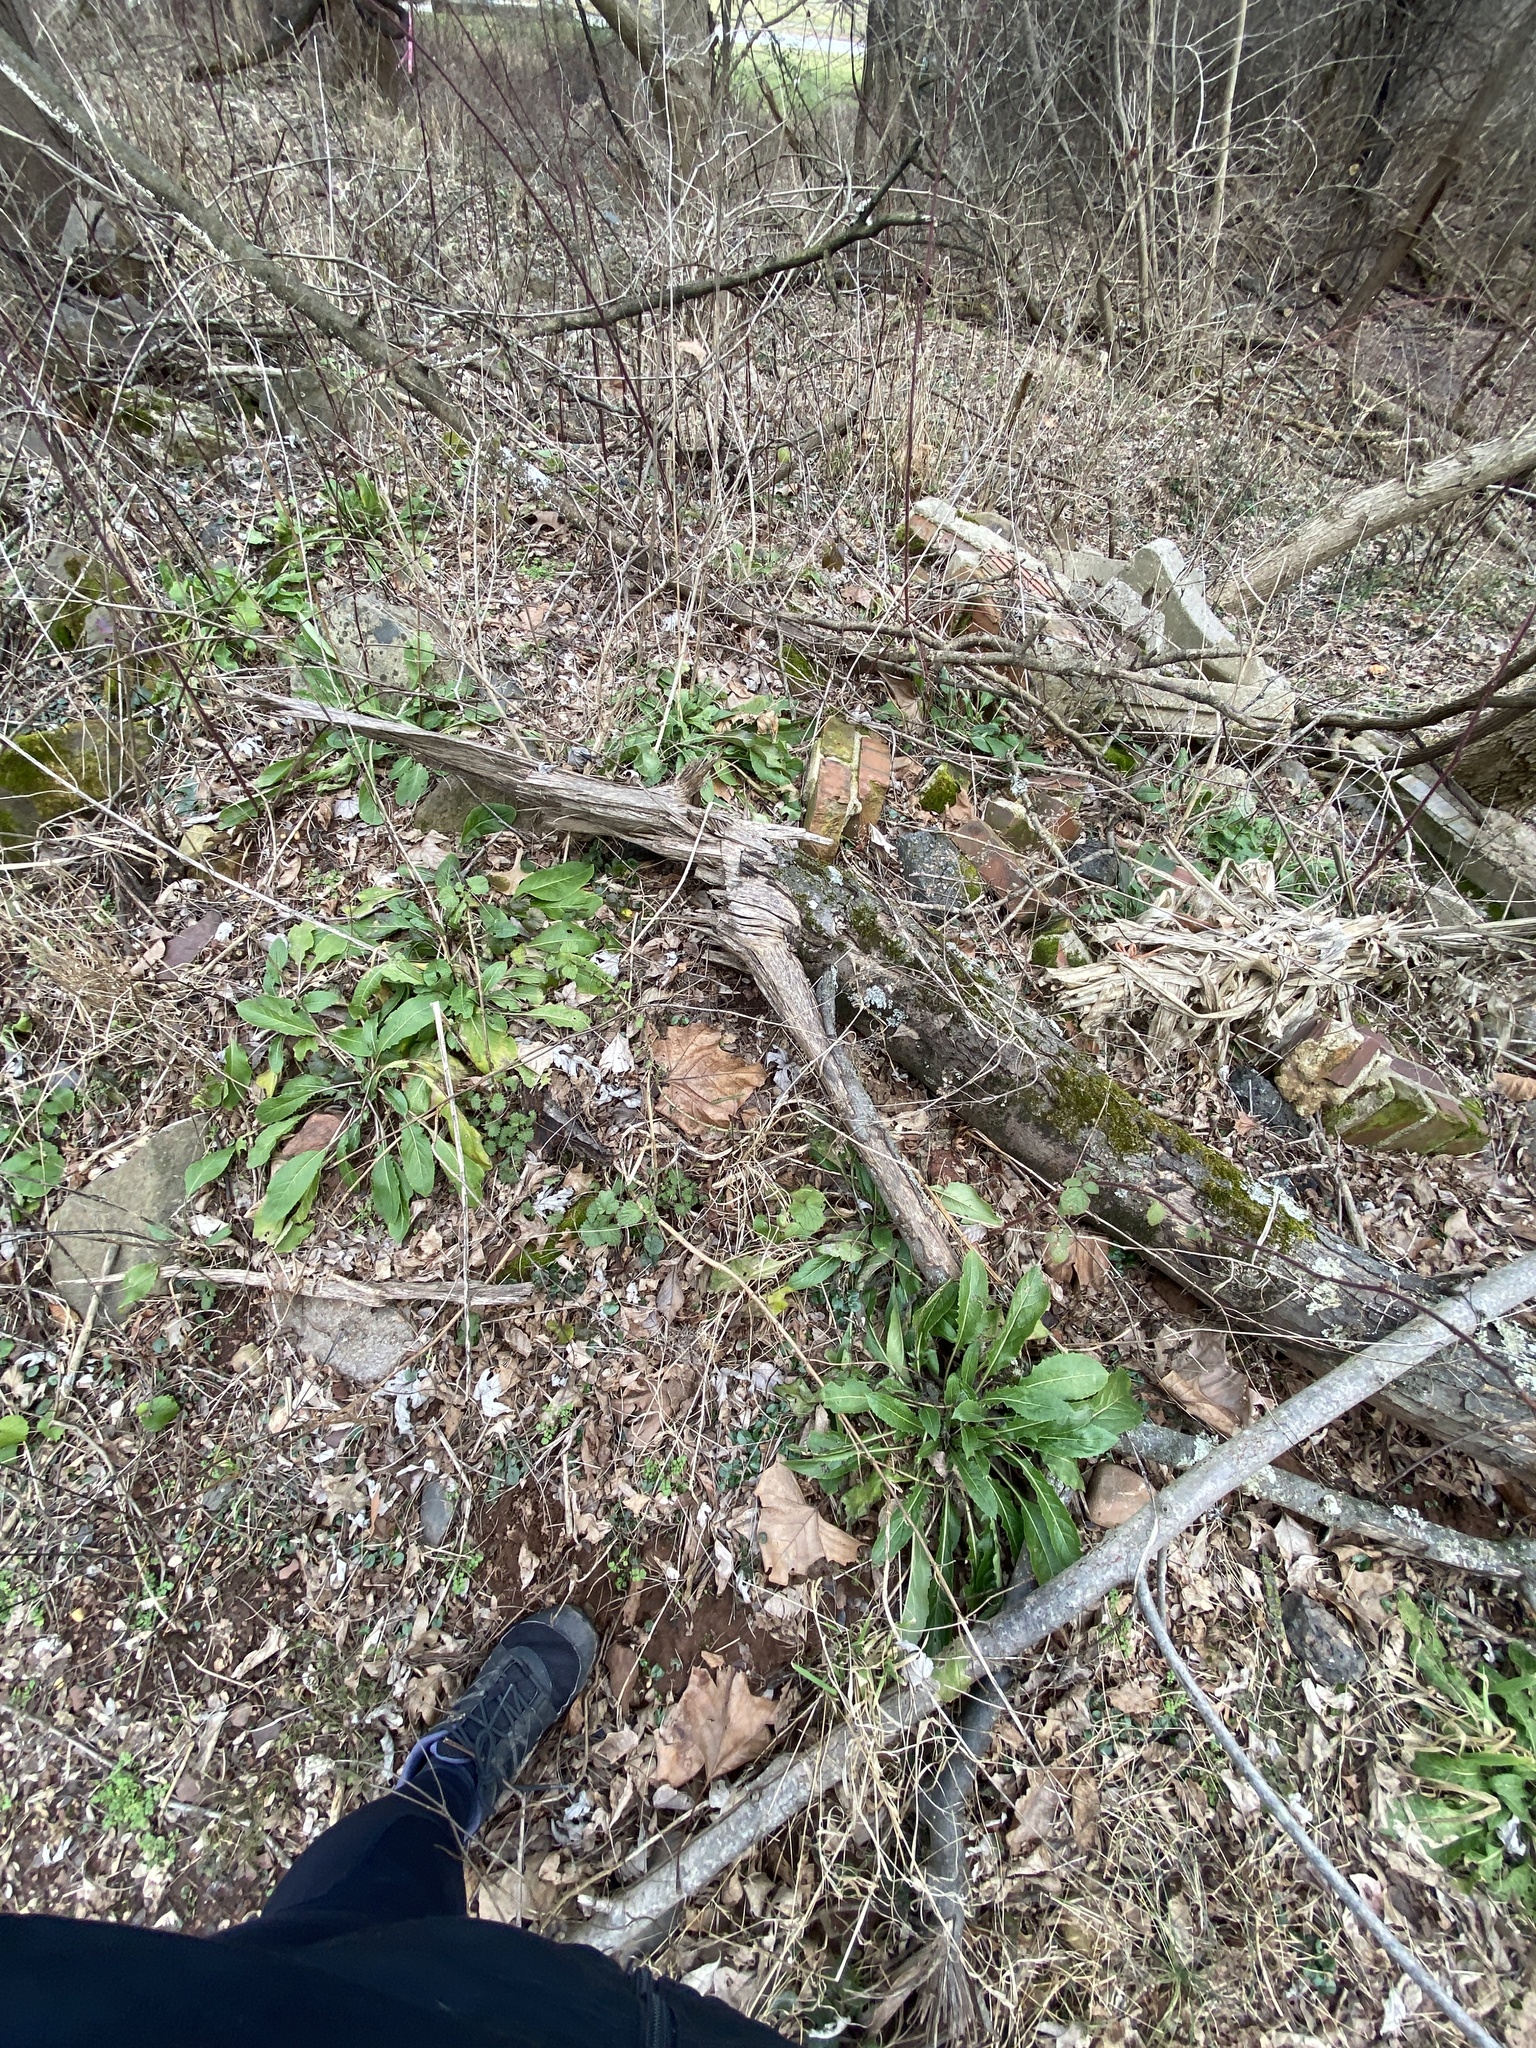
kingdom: Plantae
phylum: Tracheophyta
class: Magnoliopsida
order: Brassicales
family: Brassicaceae
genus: Hesperis
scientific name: Hesperis matronalis
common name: Dame's-violet
